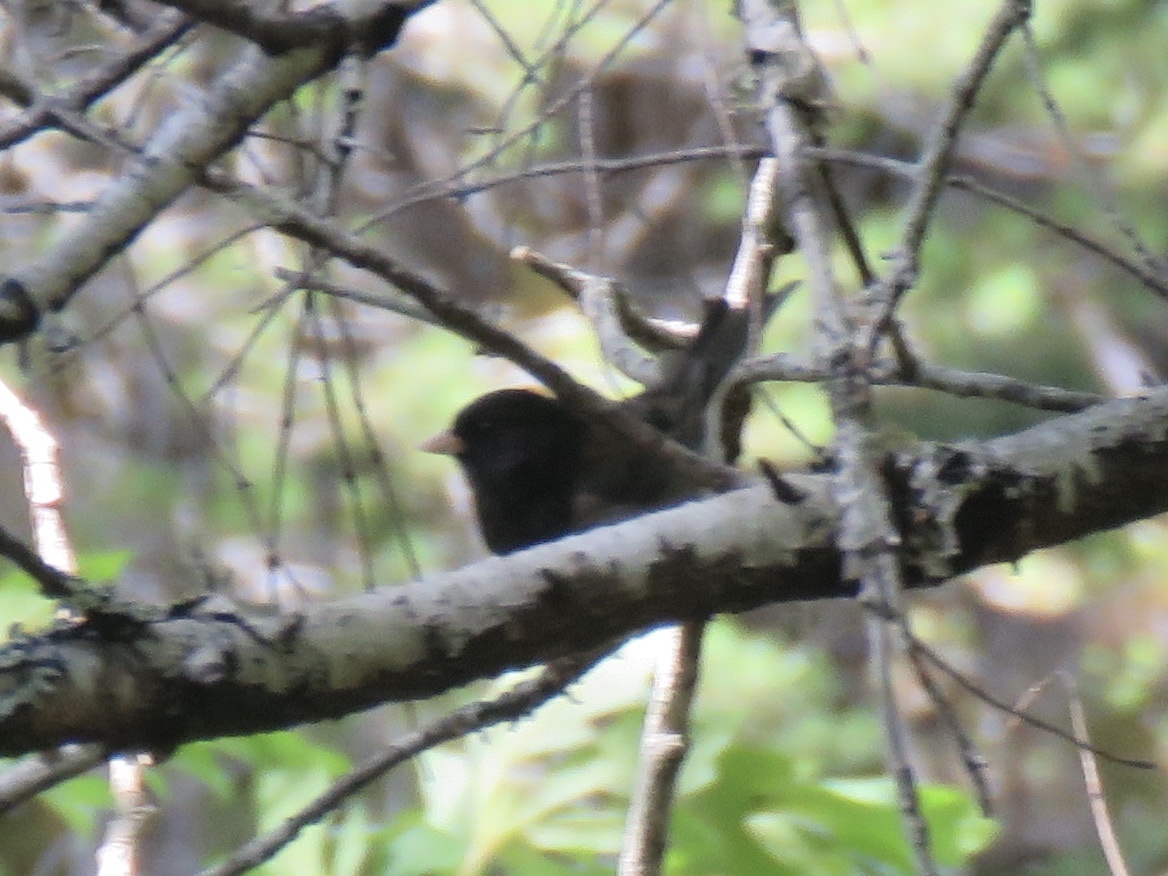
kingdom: Animalia
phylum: Chordata
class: Aves
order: Passeriformes
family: Passerellidae
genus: Junco
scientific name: Junco hyemalis
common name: Dark-eyed junco
